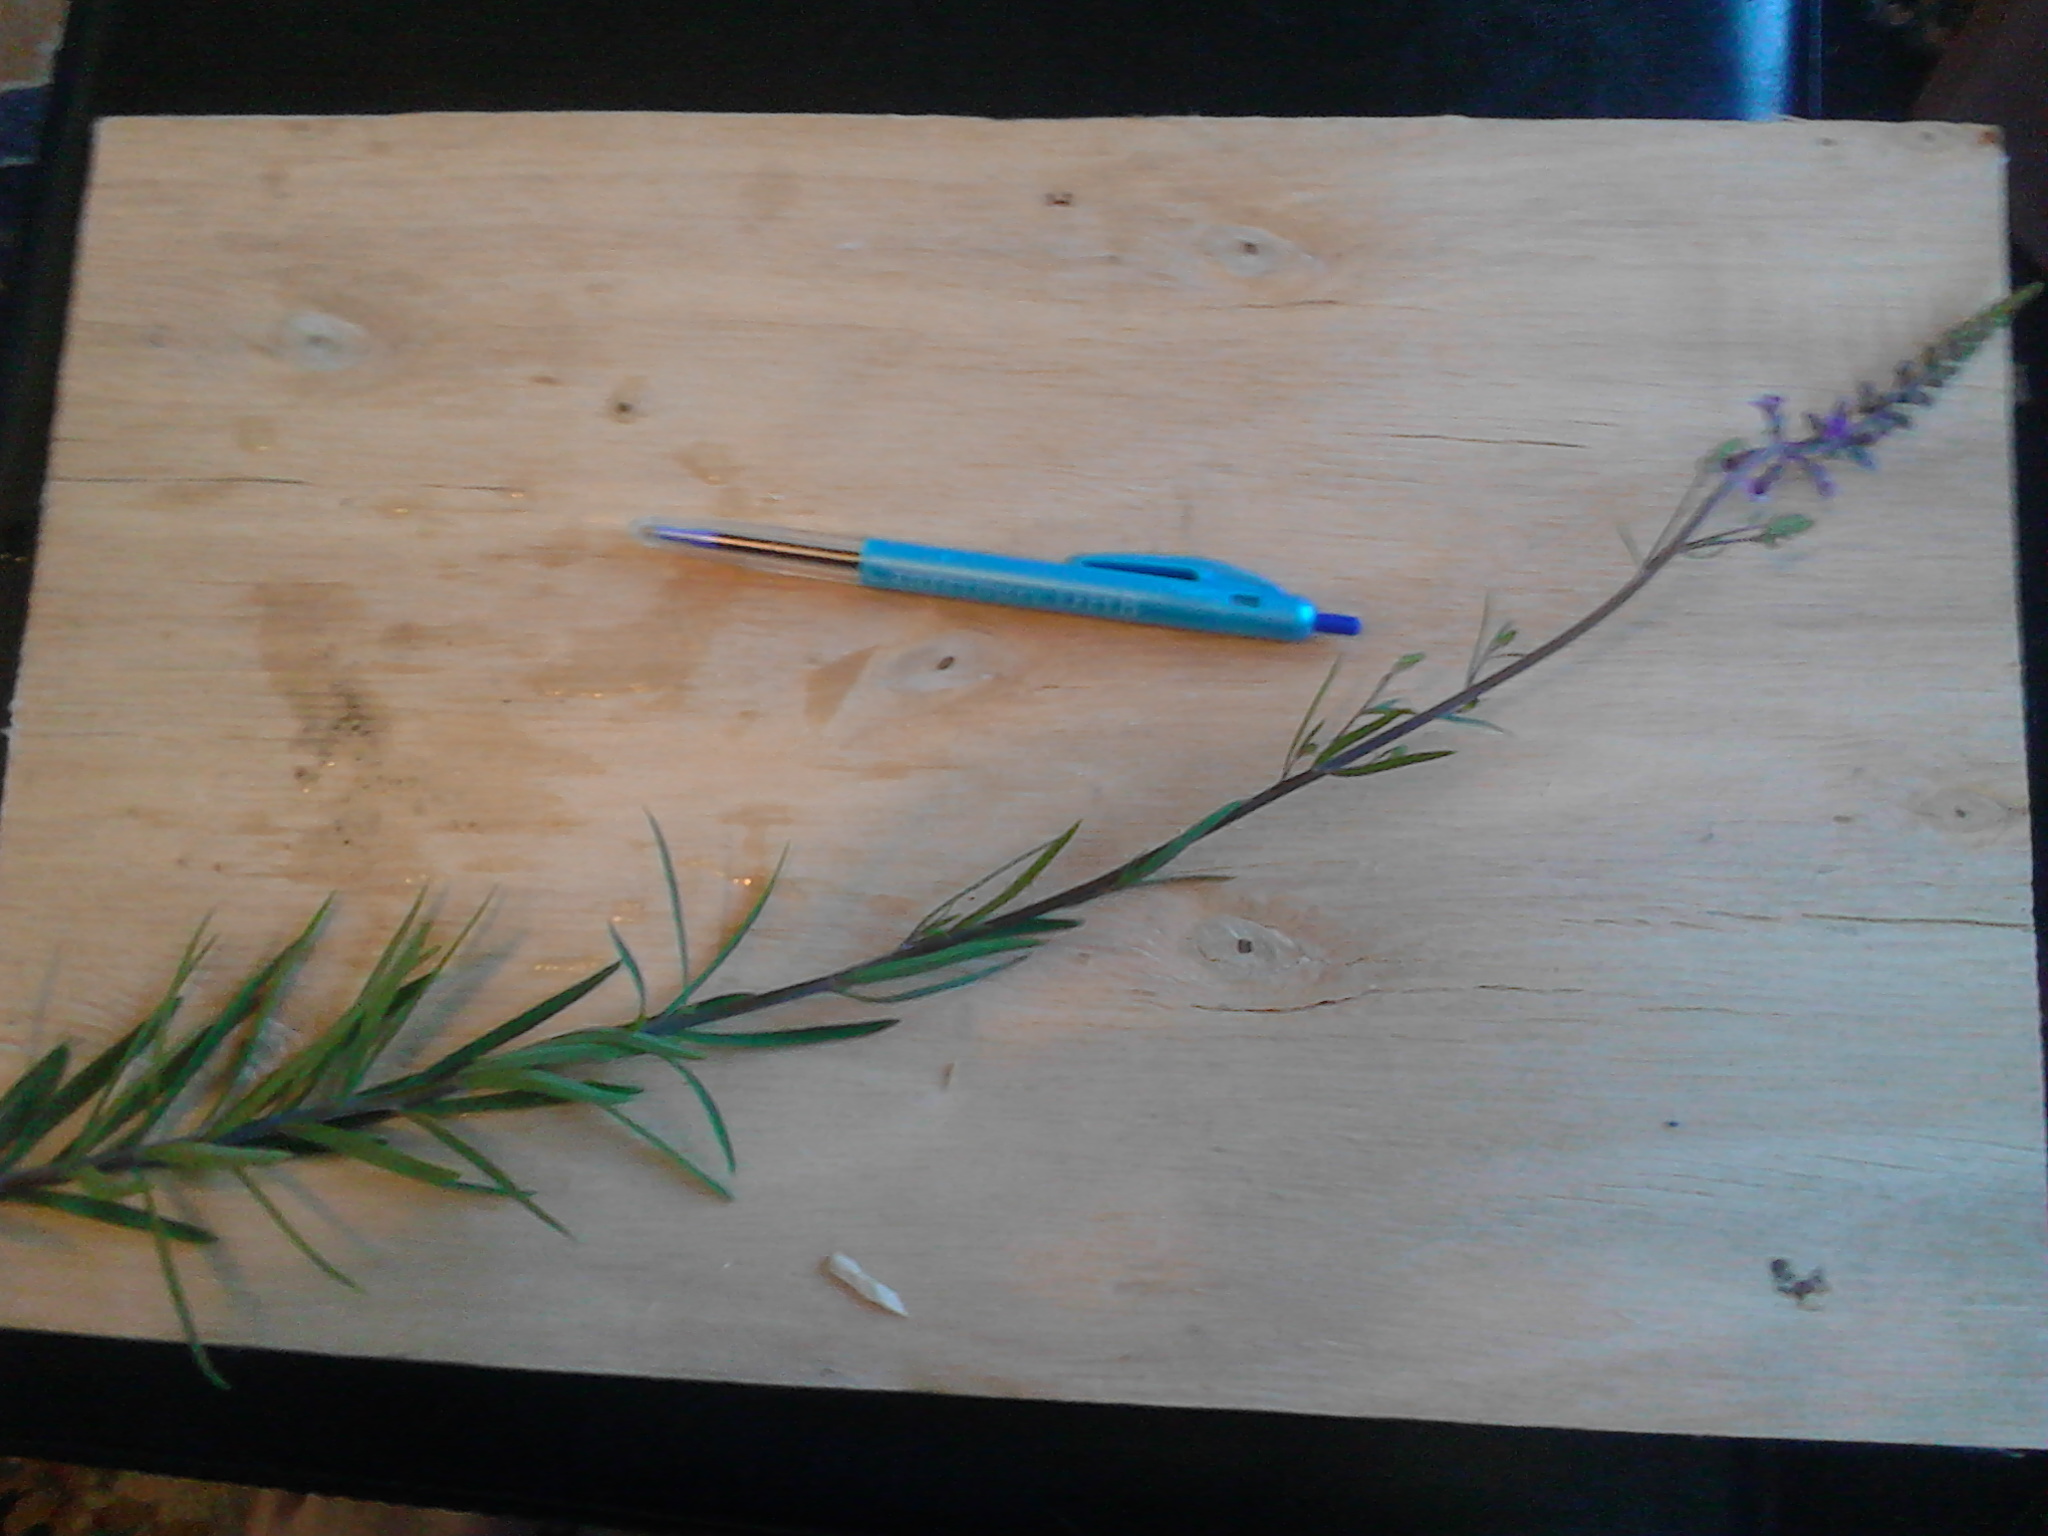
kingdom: Plantae
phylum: Tracheophyta
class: Magnoliopsida
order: Lamiales
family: Plantaginaceae
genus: Linaria
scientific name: Linaria purpurea
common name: Purple toadflax
